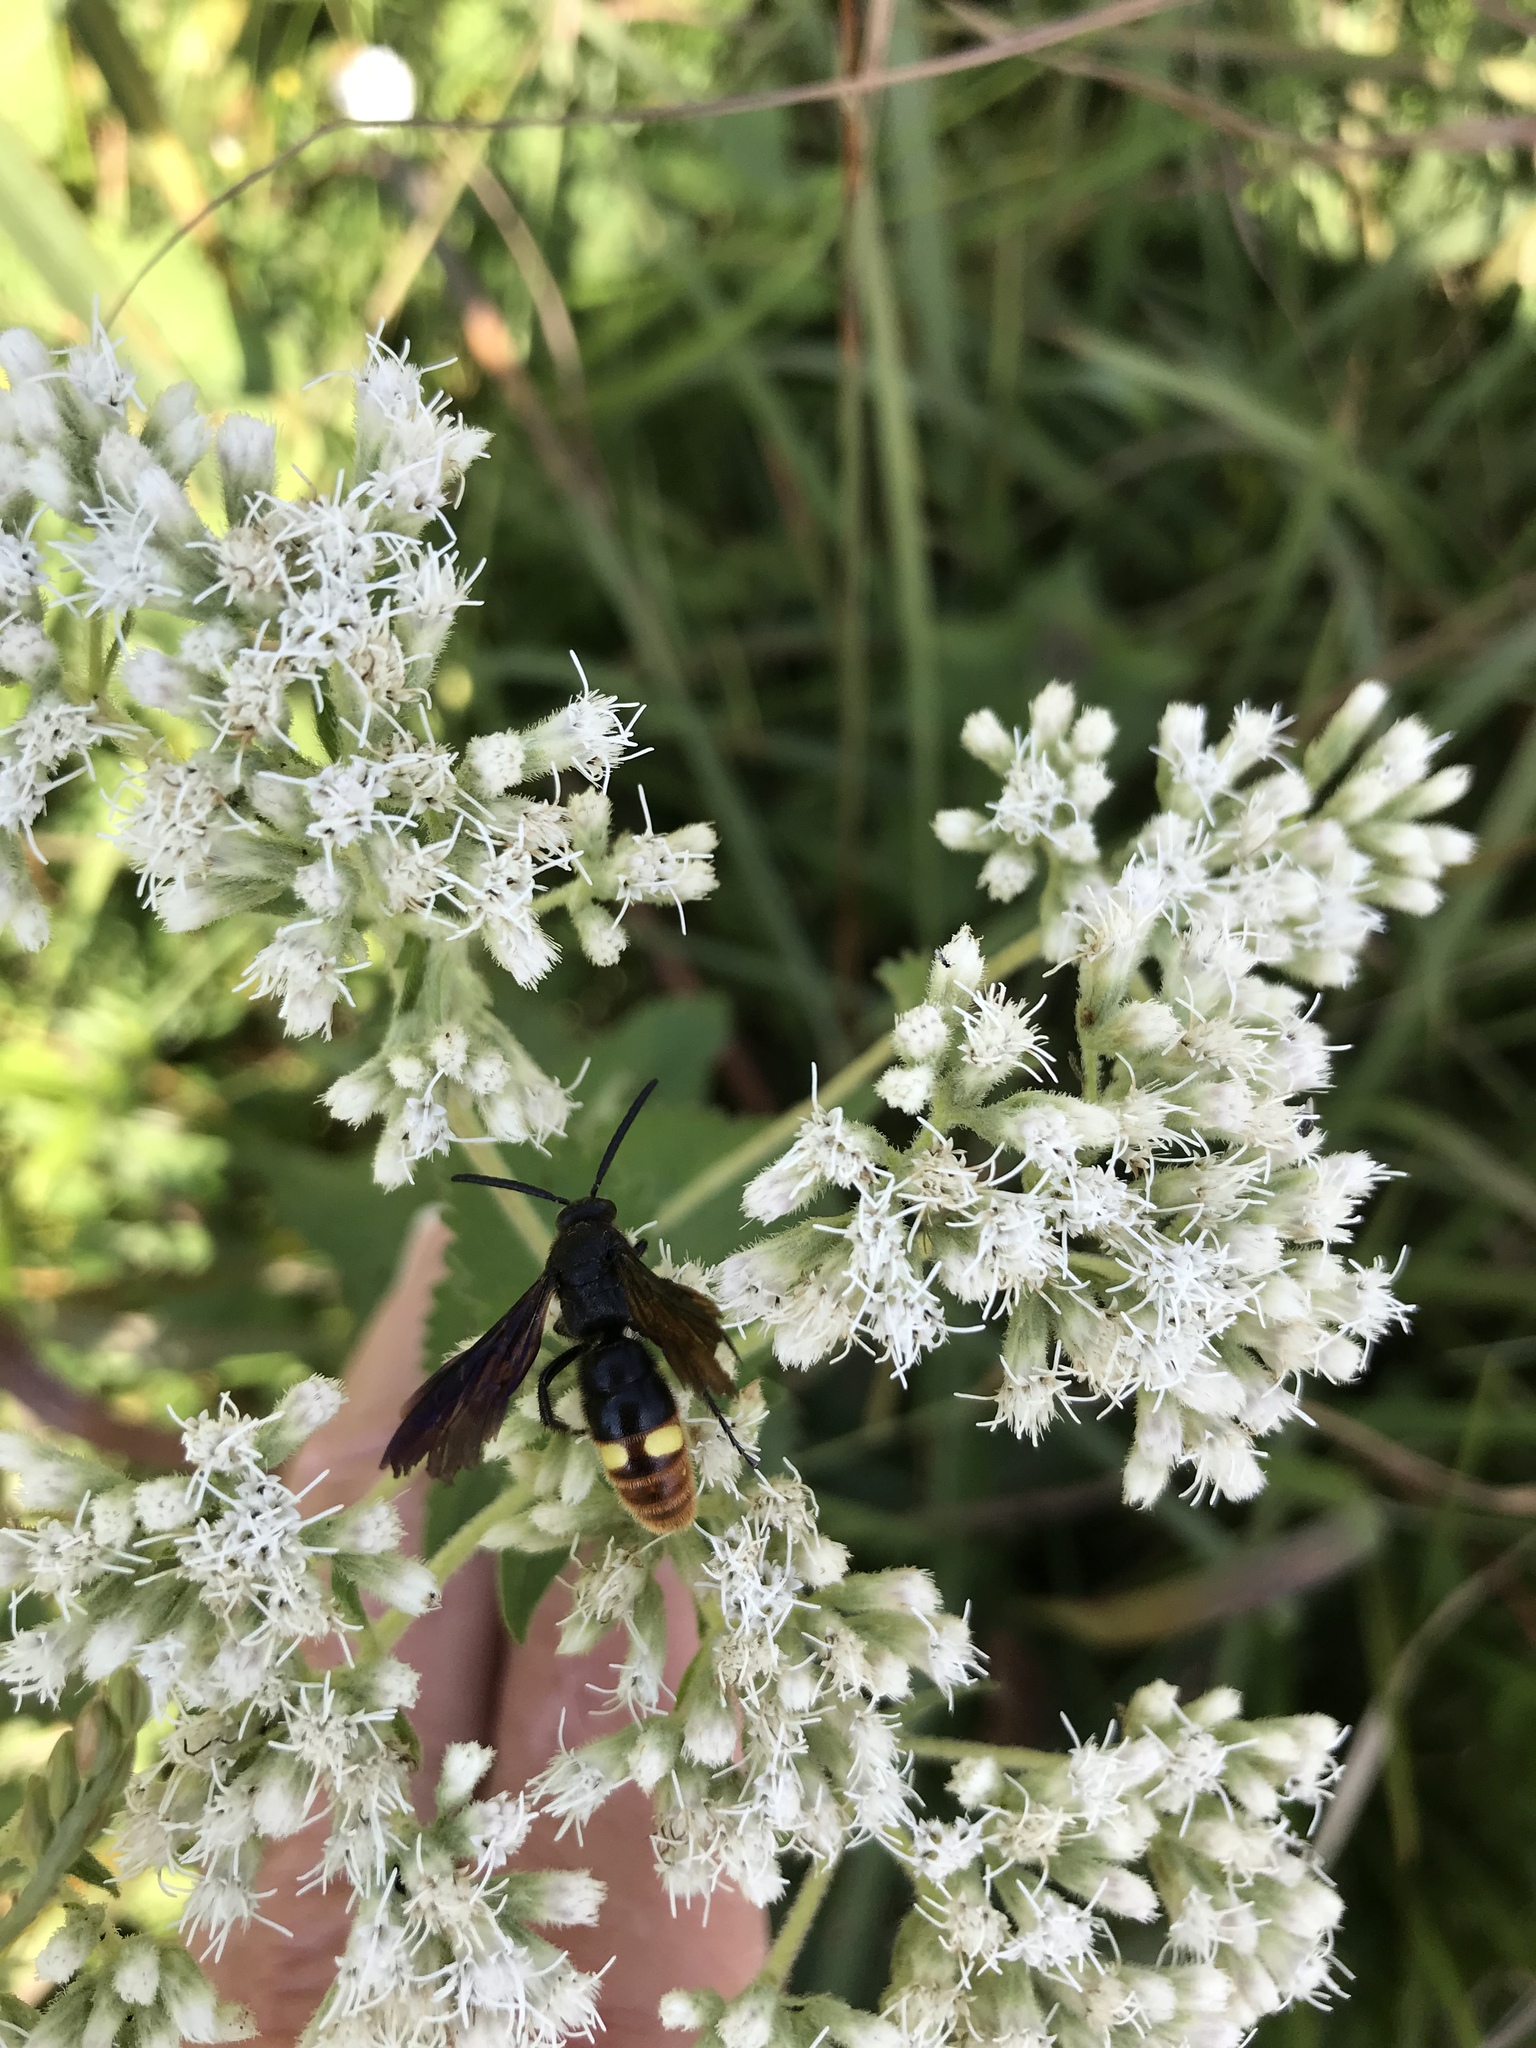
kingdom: Animalia
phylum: Arthropoda
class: Insecta
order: Hymenoptera
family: Scoliidae
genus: Scolia
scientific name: Scolia dubia
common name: Blue-winged scoliid wasp
